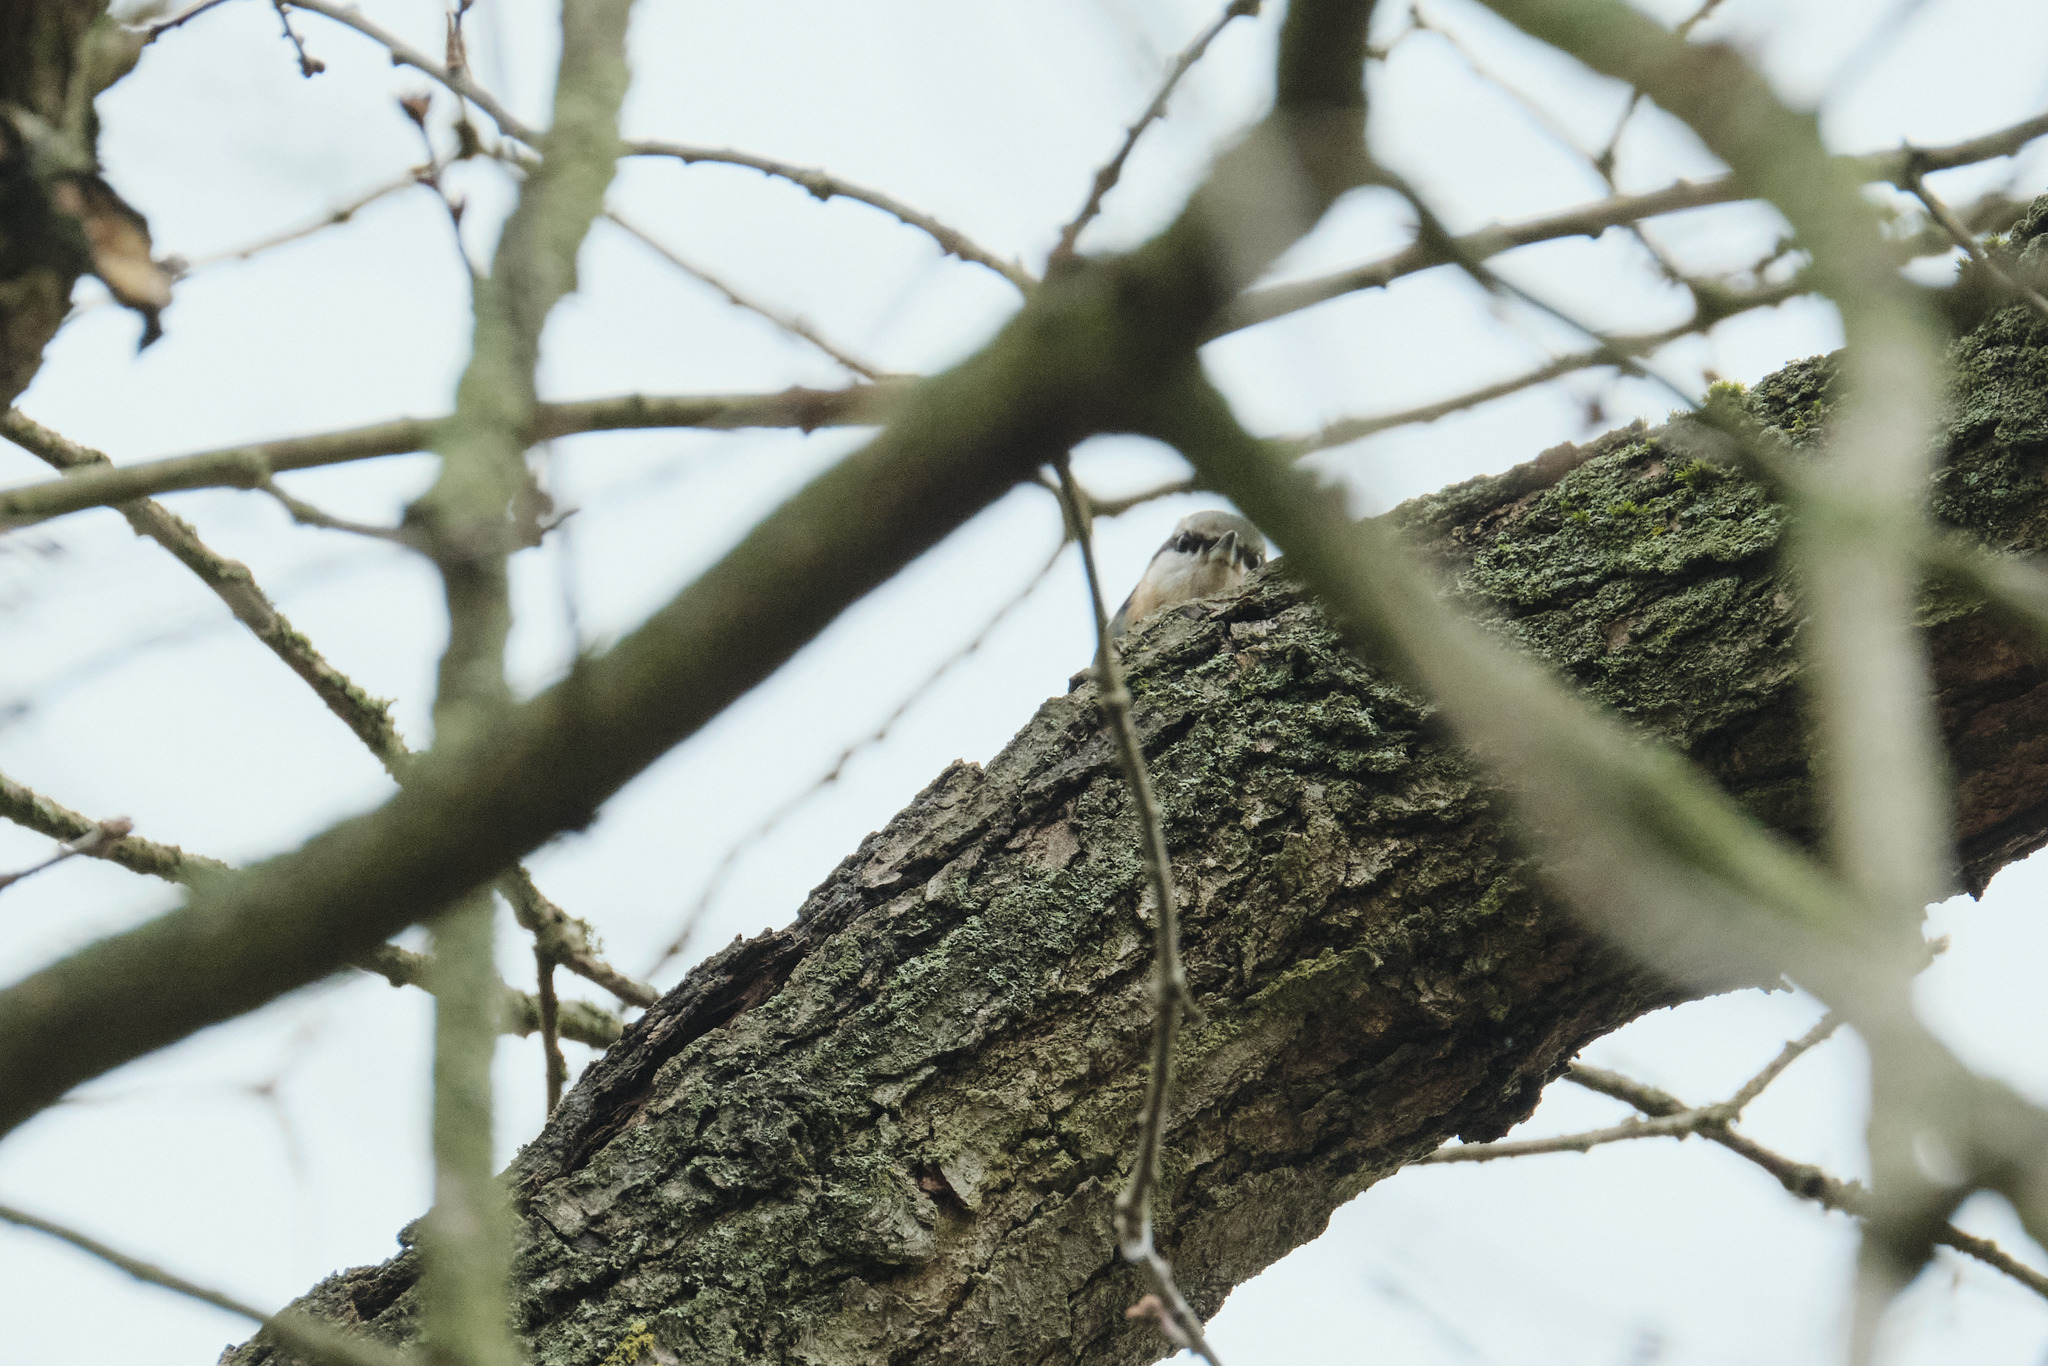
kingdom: Animalia
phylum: Chordata
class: Aves
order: Passeriformes
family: Sittidae
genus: Sitta
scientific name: Sitta europaea
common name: Eurasian nuthatch
